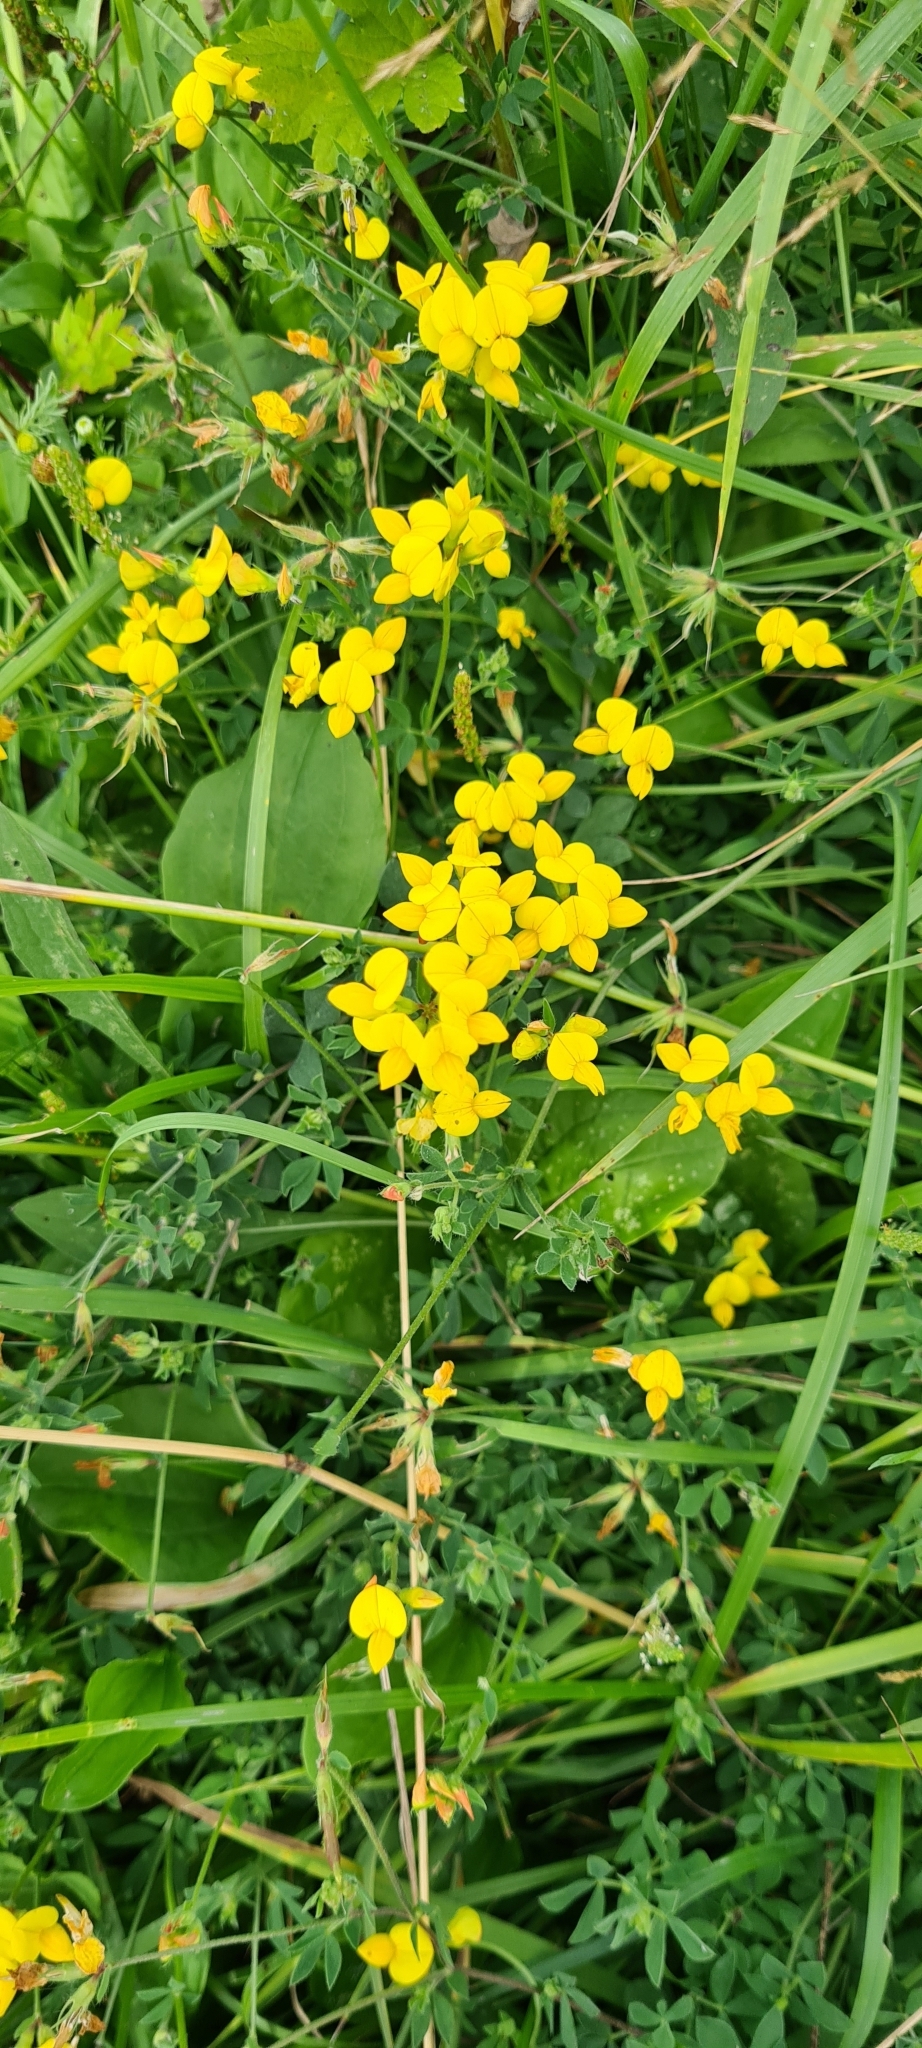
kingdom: Plantae
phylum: Tracheophyta
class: Magnoliopsida
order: Fabales
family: Fabaceae
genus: Lotus
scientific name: Lotus corniculatus
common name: Common bird's-foot-trefoil
